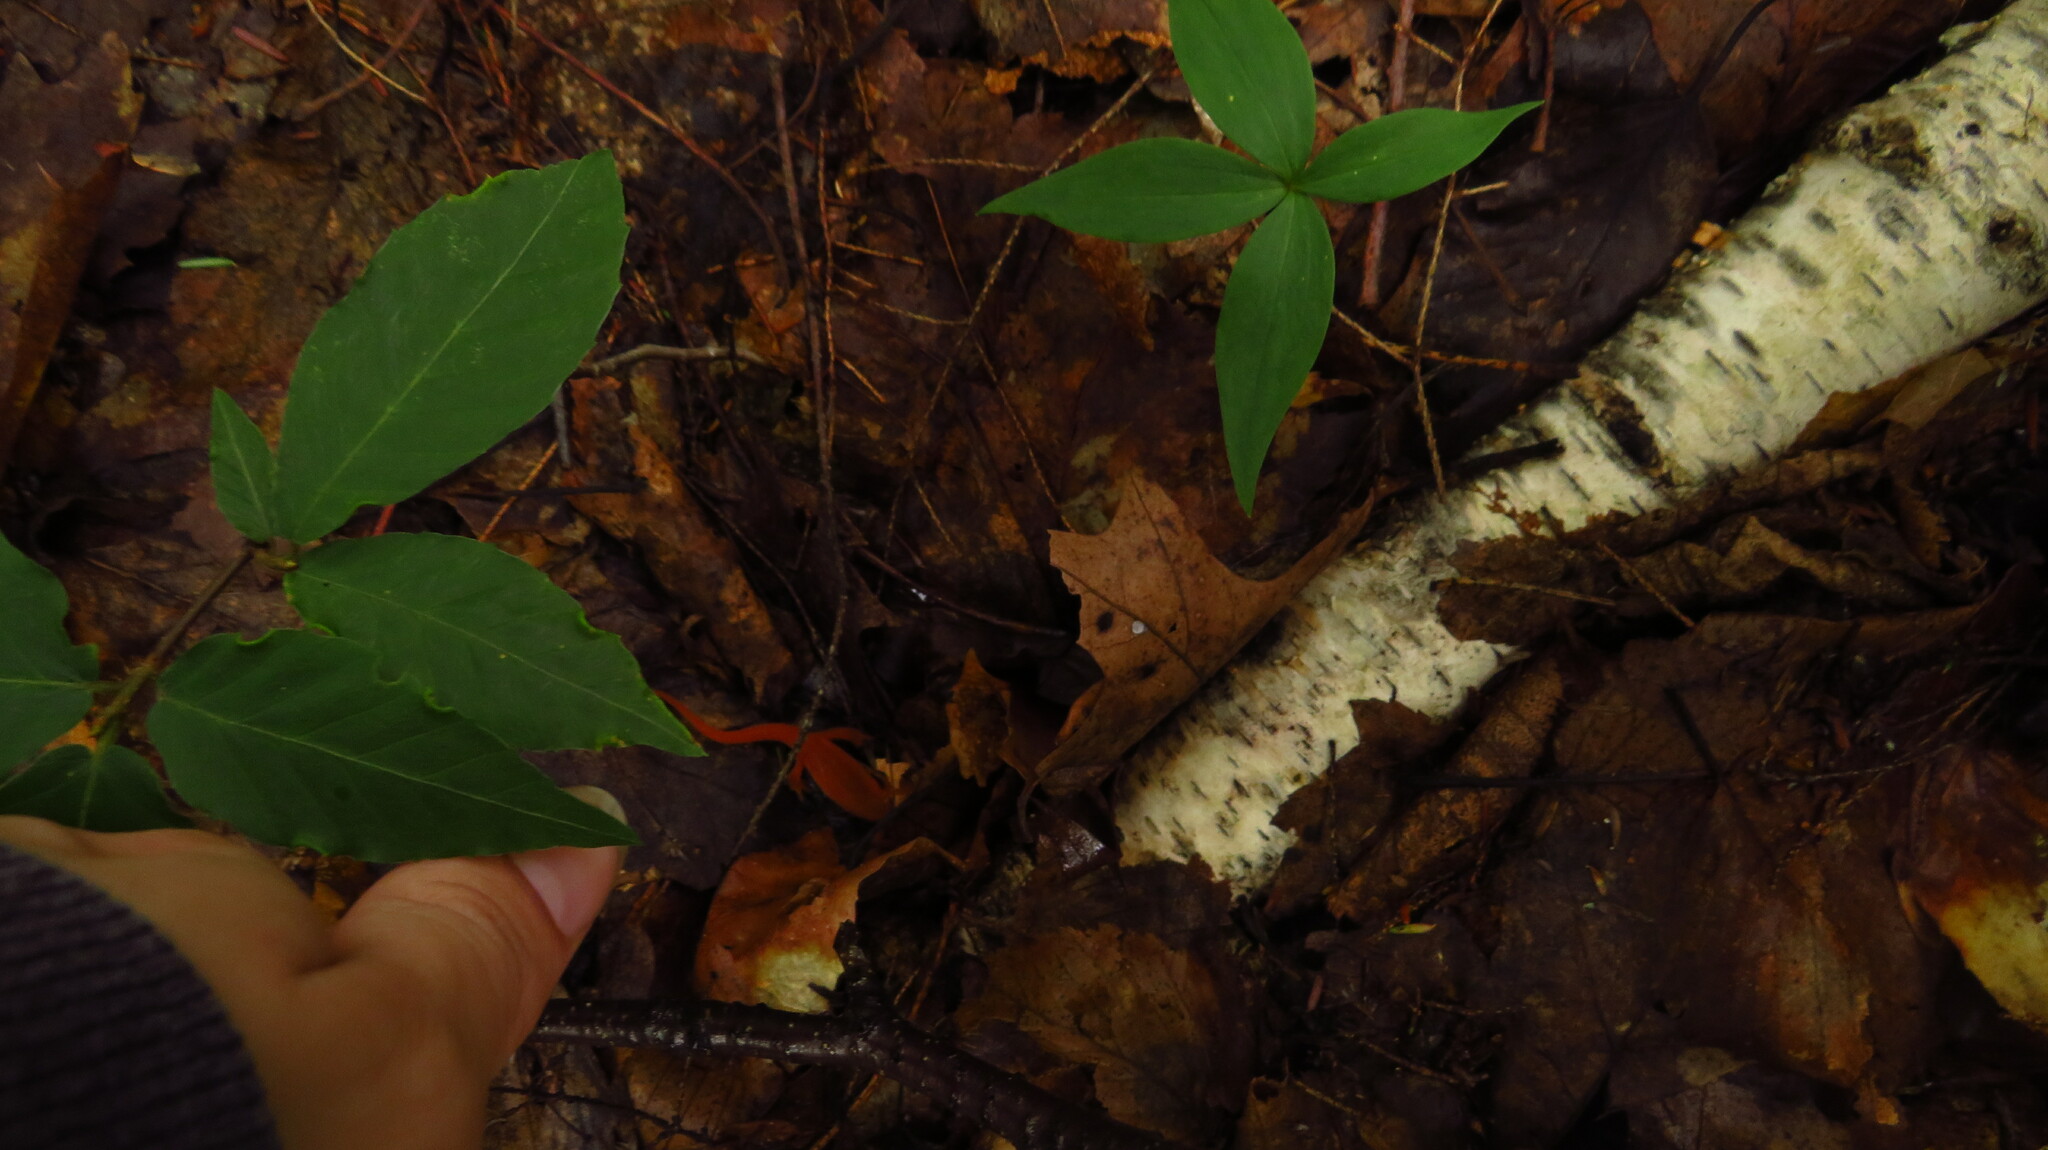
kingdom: Animalia
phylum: Chordata
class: Amphibia
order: Caudata
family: Salamandridae
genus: Notophthalmus
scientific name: Notophthalmus viridescens
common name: Eastern newt
